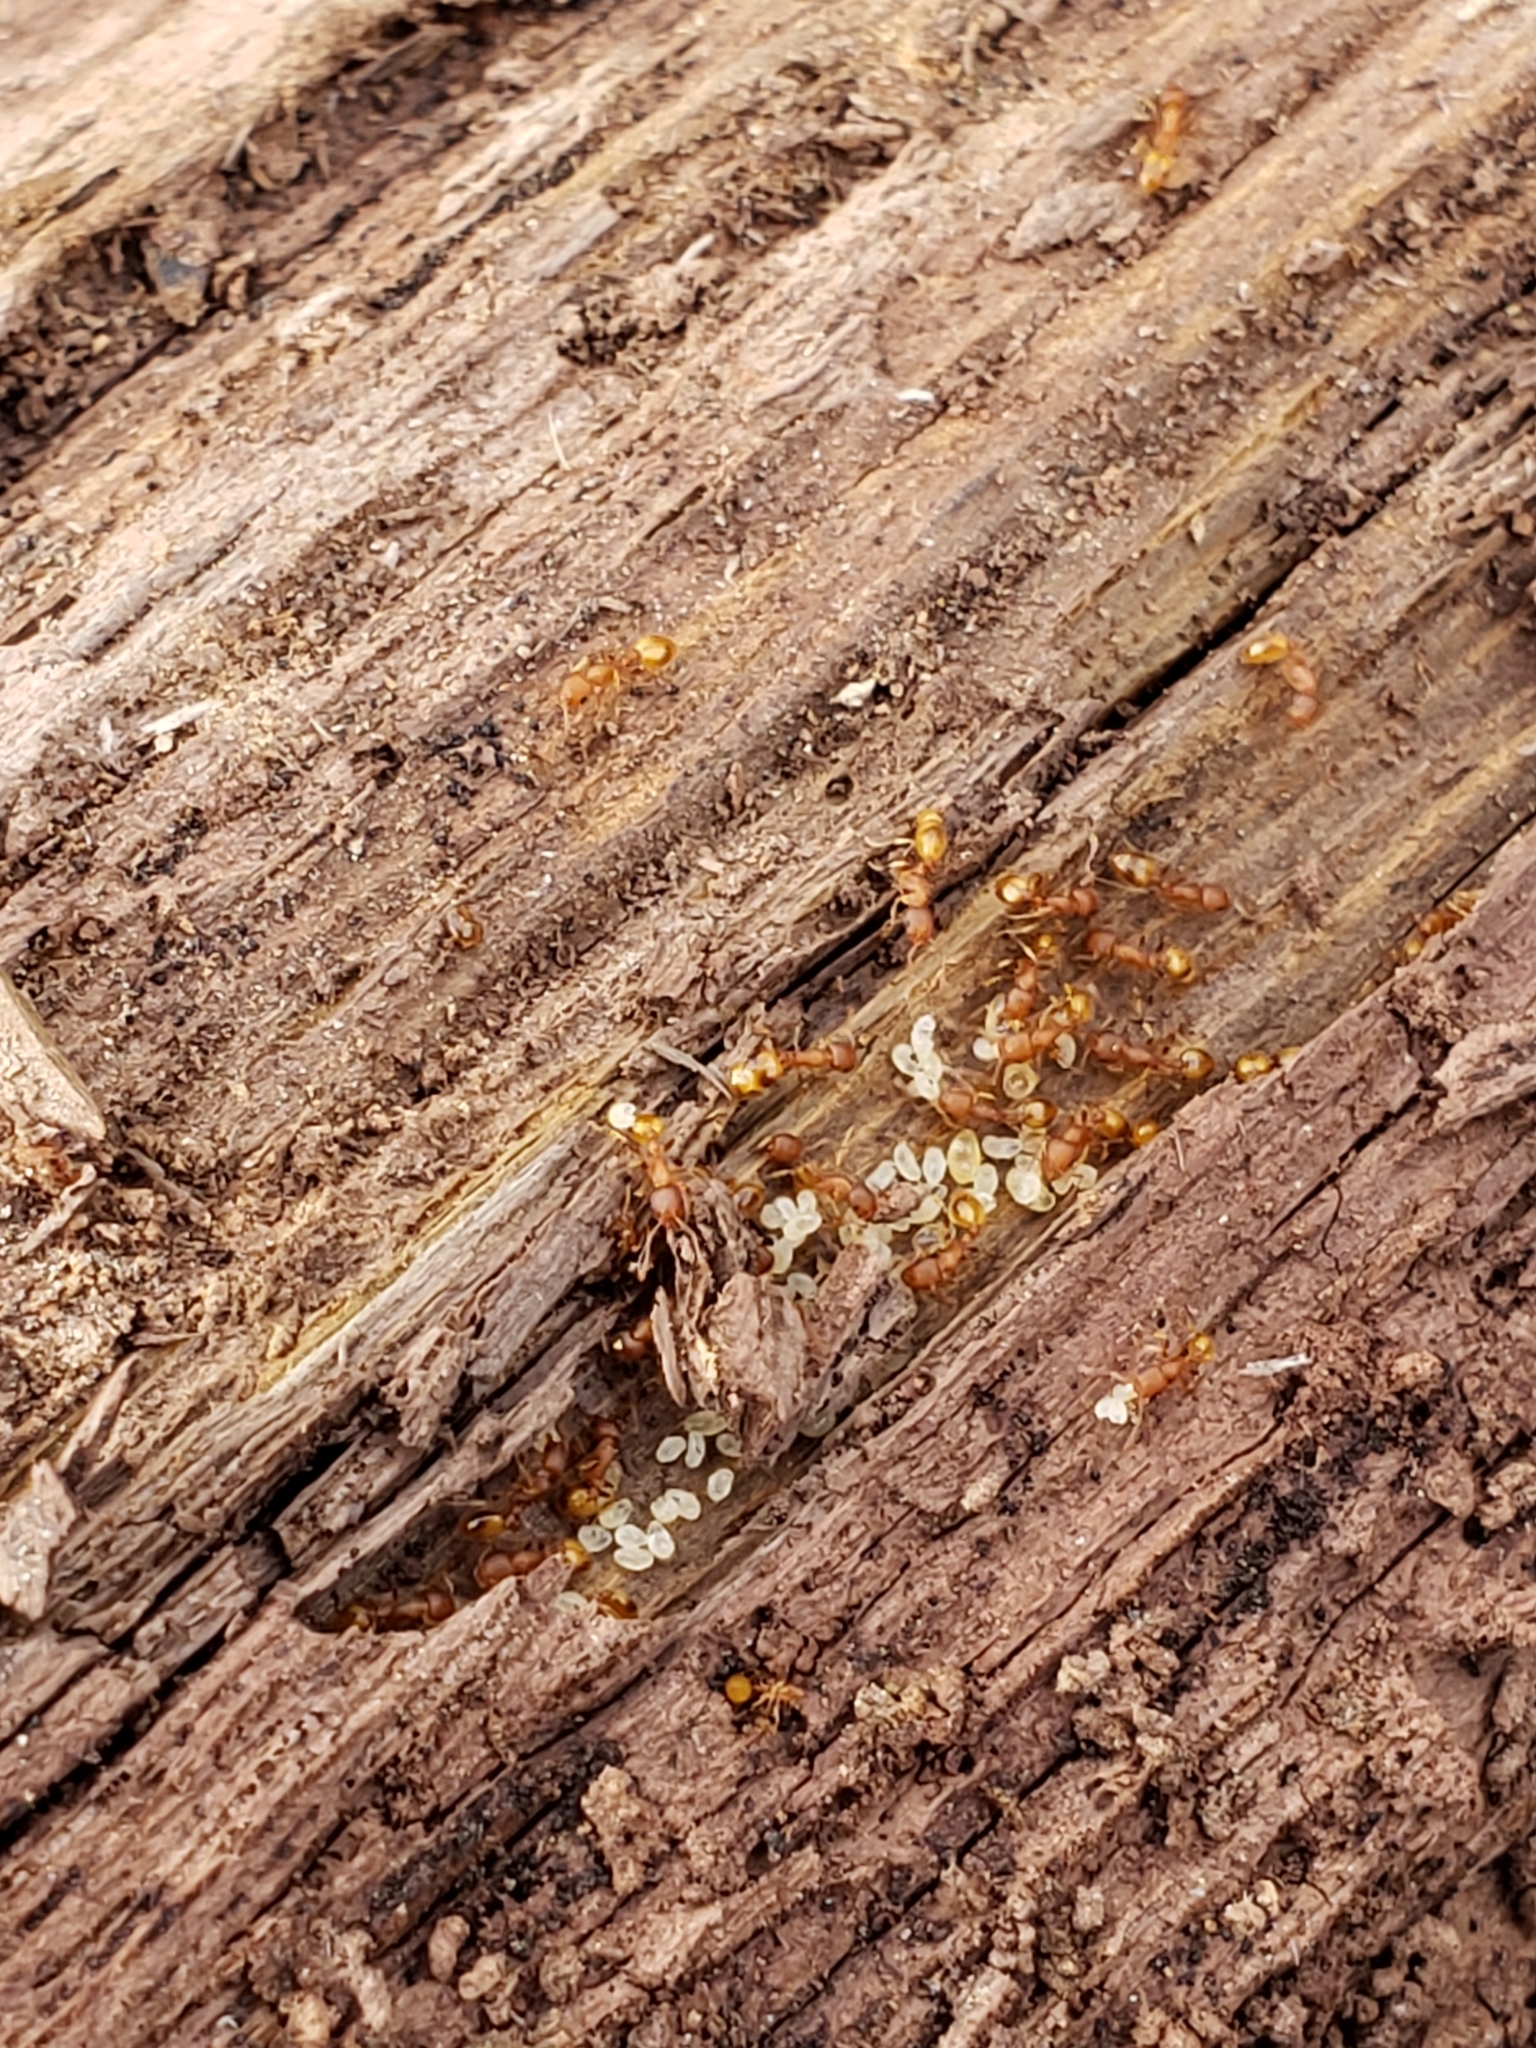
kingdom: Animalia
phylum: Arthropoda
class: Insecta
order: Hymenoptera
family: Formicidae
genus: Temnothorax
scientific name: Temnothorax curvispinosus
